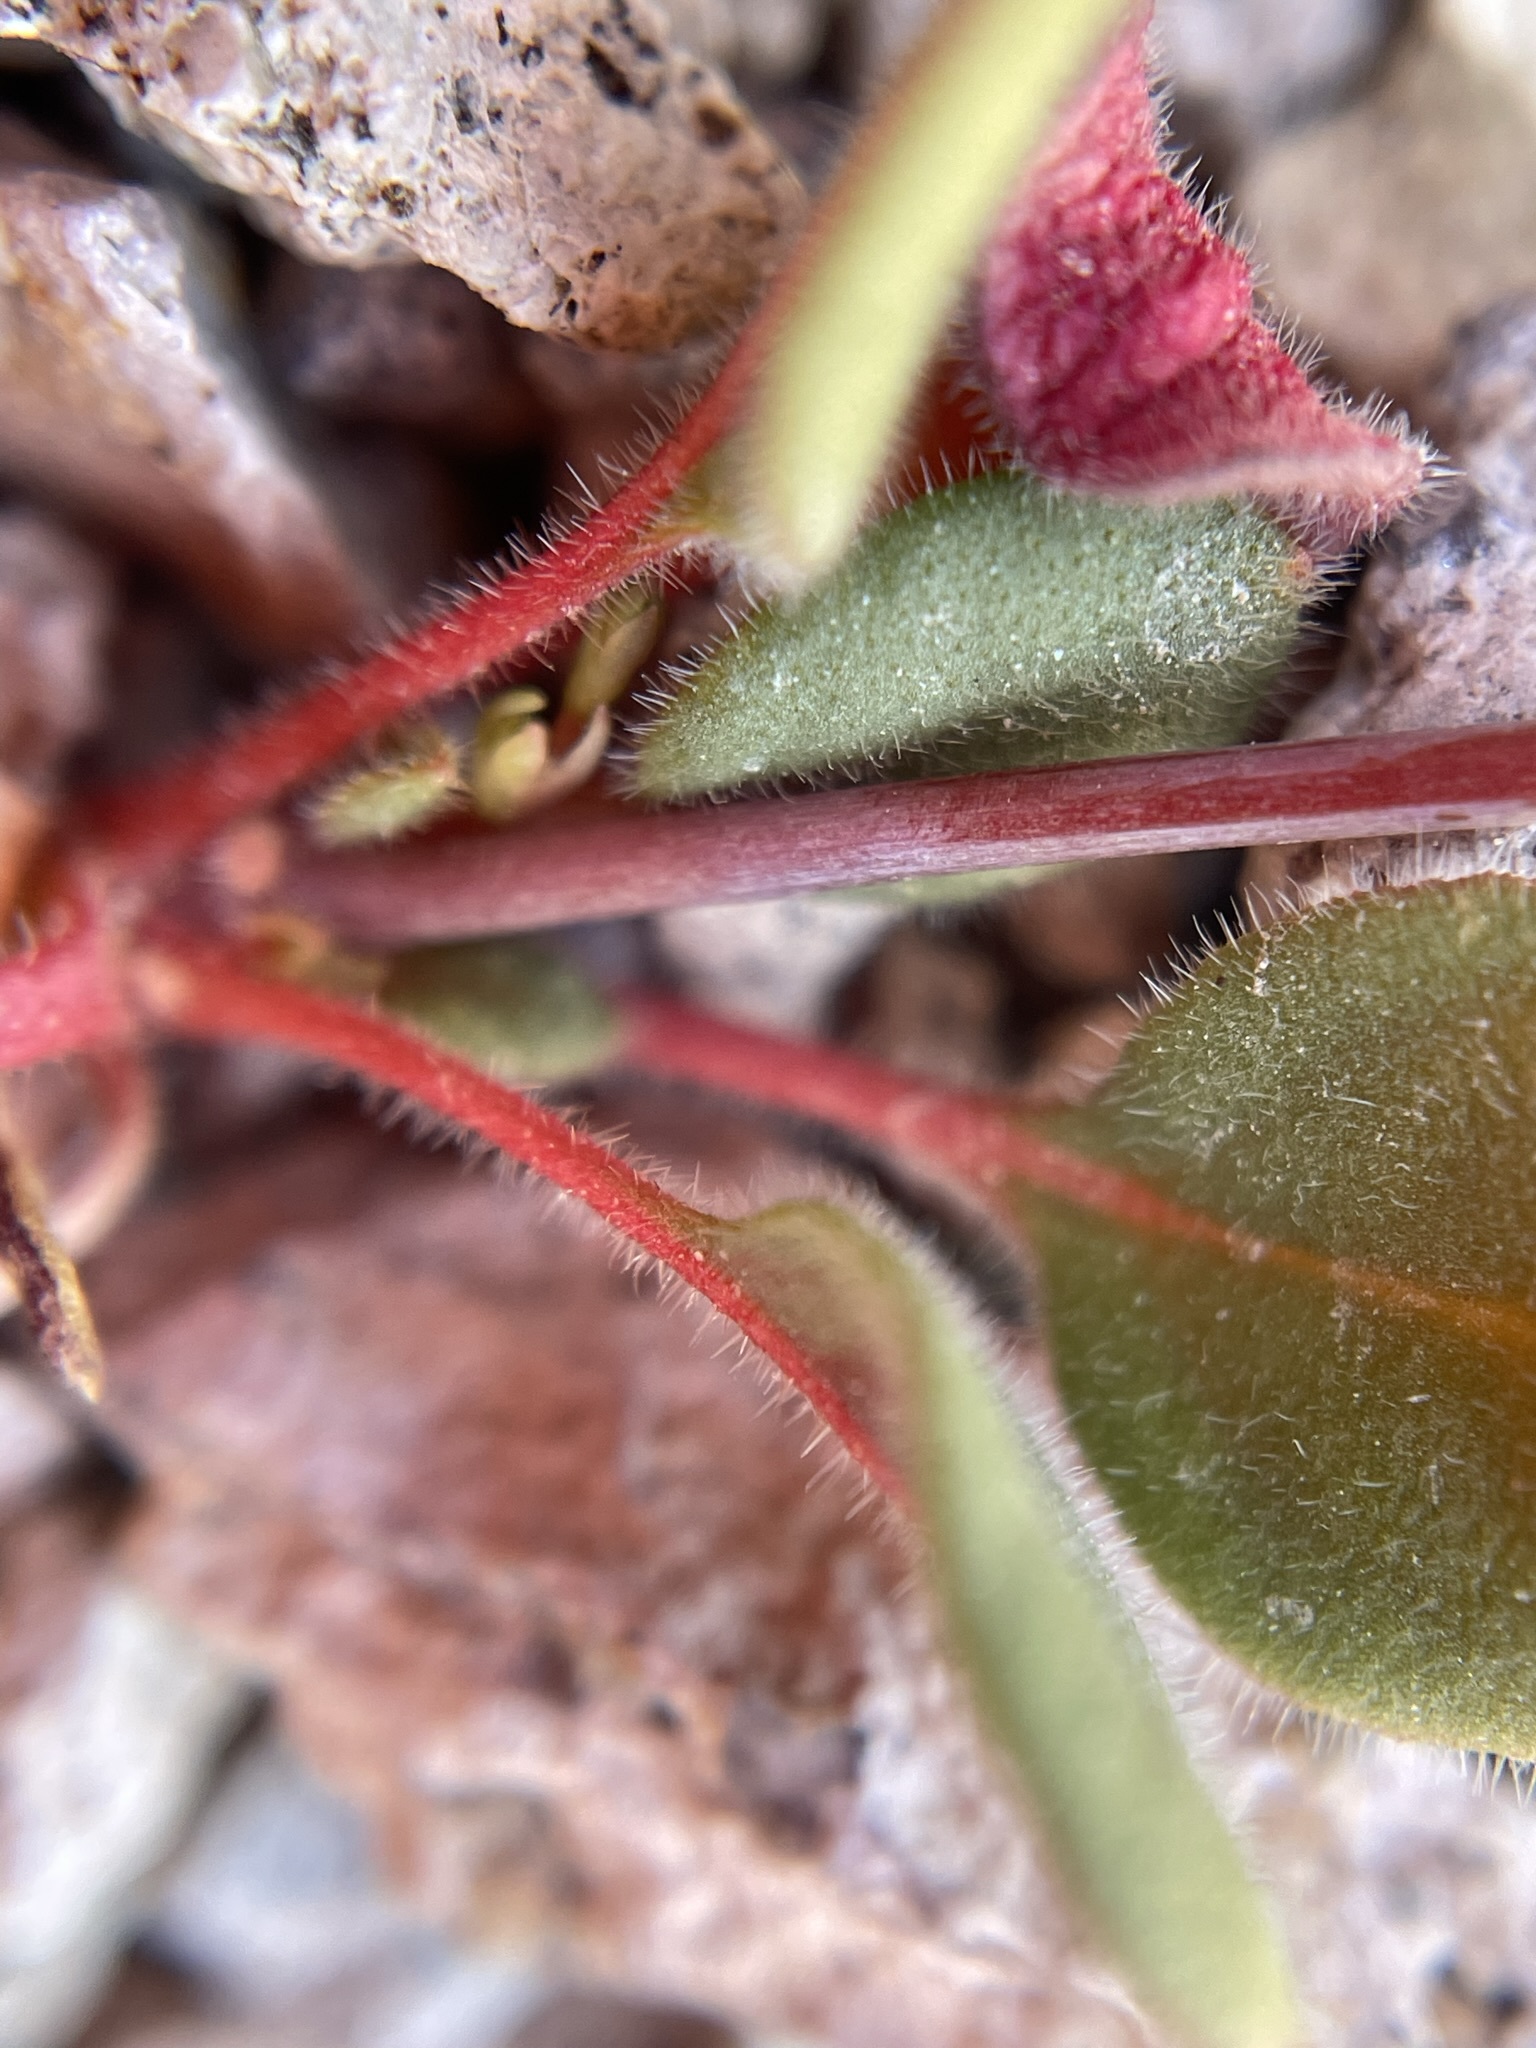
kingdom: Plantae
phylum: Tracheophyta
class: Magnoliopsida
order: Caryophyllales
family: Polygonaceae
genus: Eriogonum
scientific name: Eriogonum esmeraldense
